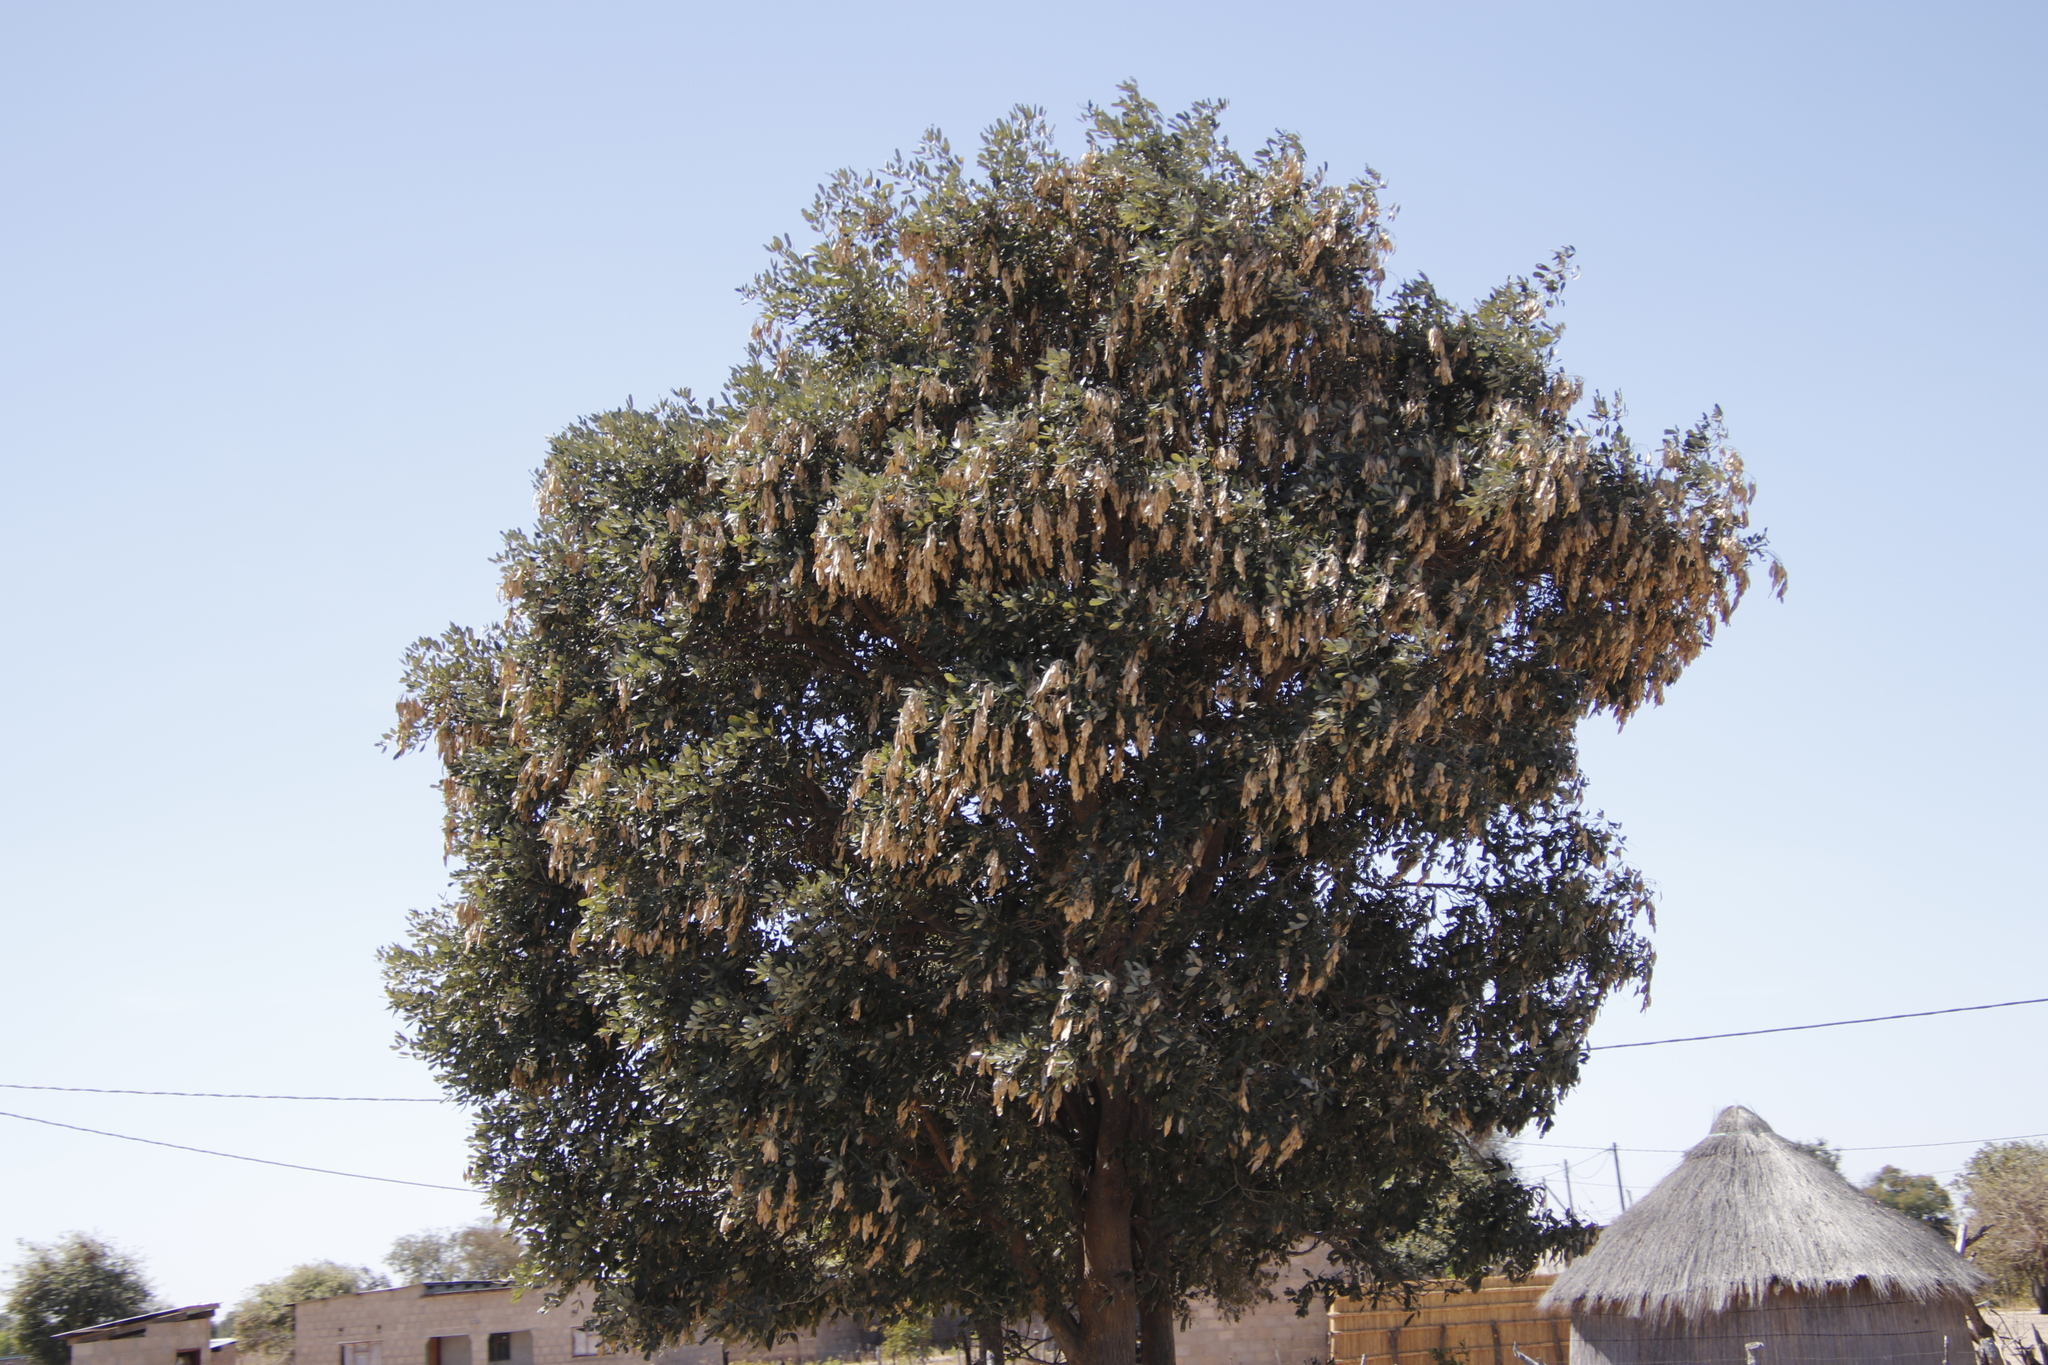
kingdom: Plantae
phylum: Tracheophyta
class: Magnoliopsida
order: Fabales
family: Fabaceae
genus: Philenoptera
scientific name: Philenoptera violacea
